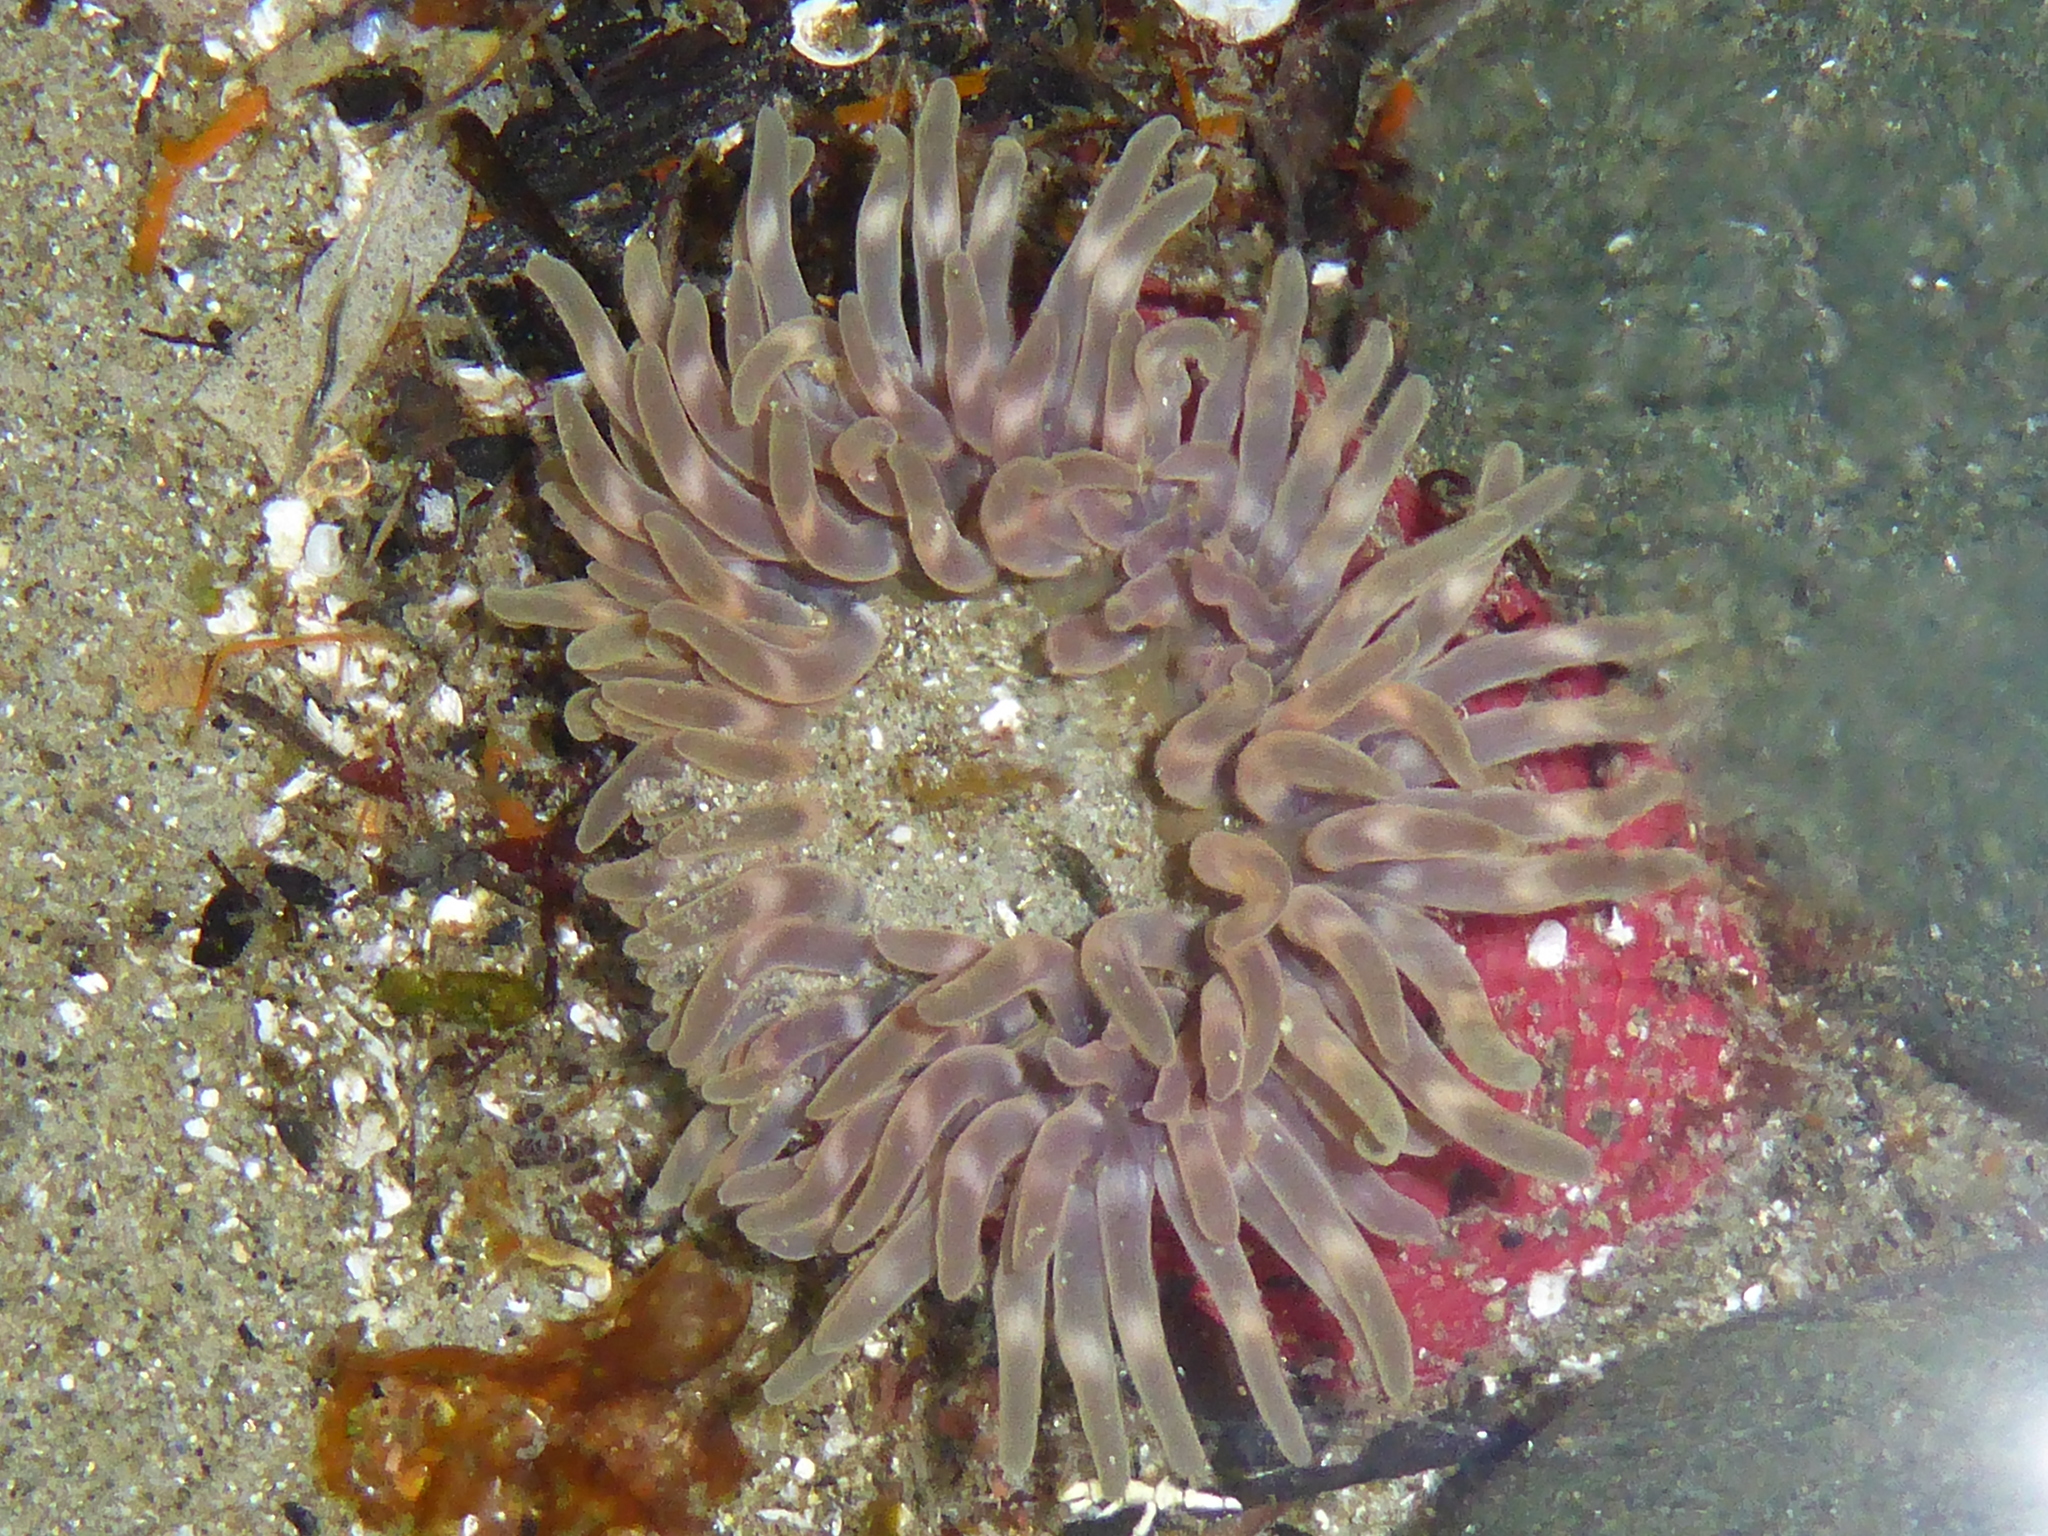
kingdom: Animalia
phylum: Cnidaria
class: Anthozoa
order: Actiniaria
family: Actiniidae
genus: Urticina
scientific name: Urticina clandestina
